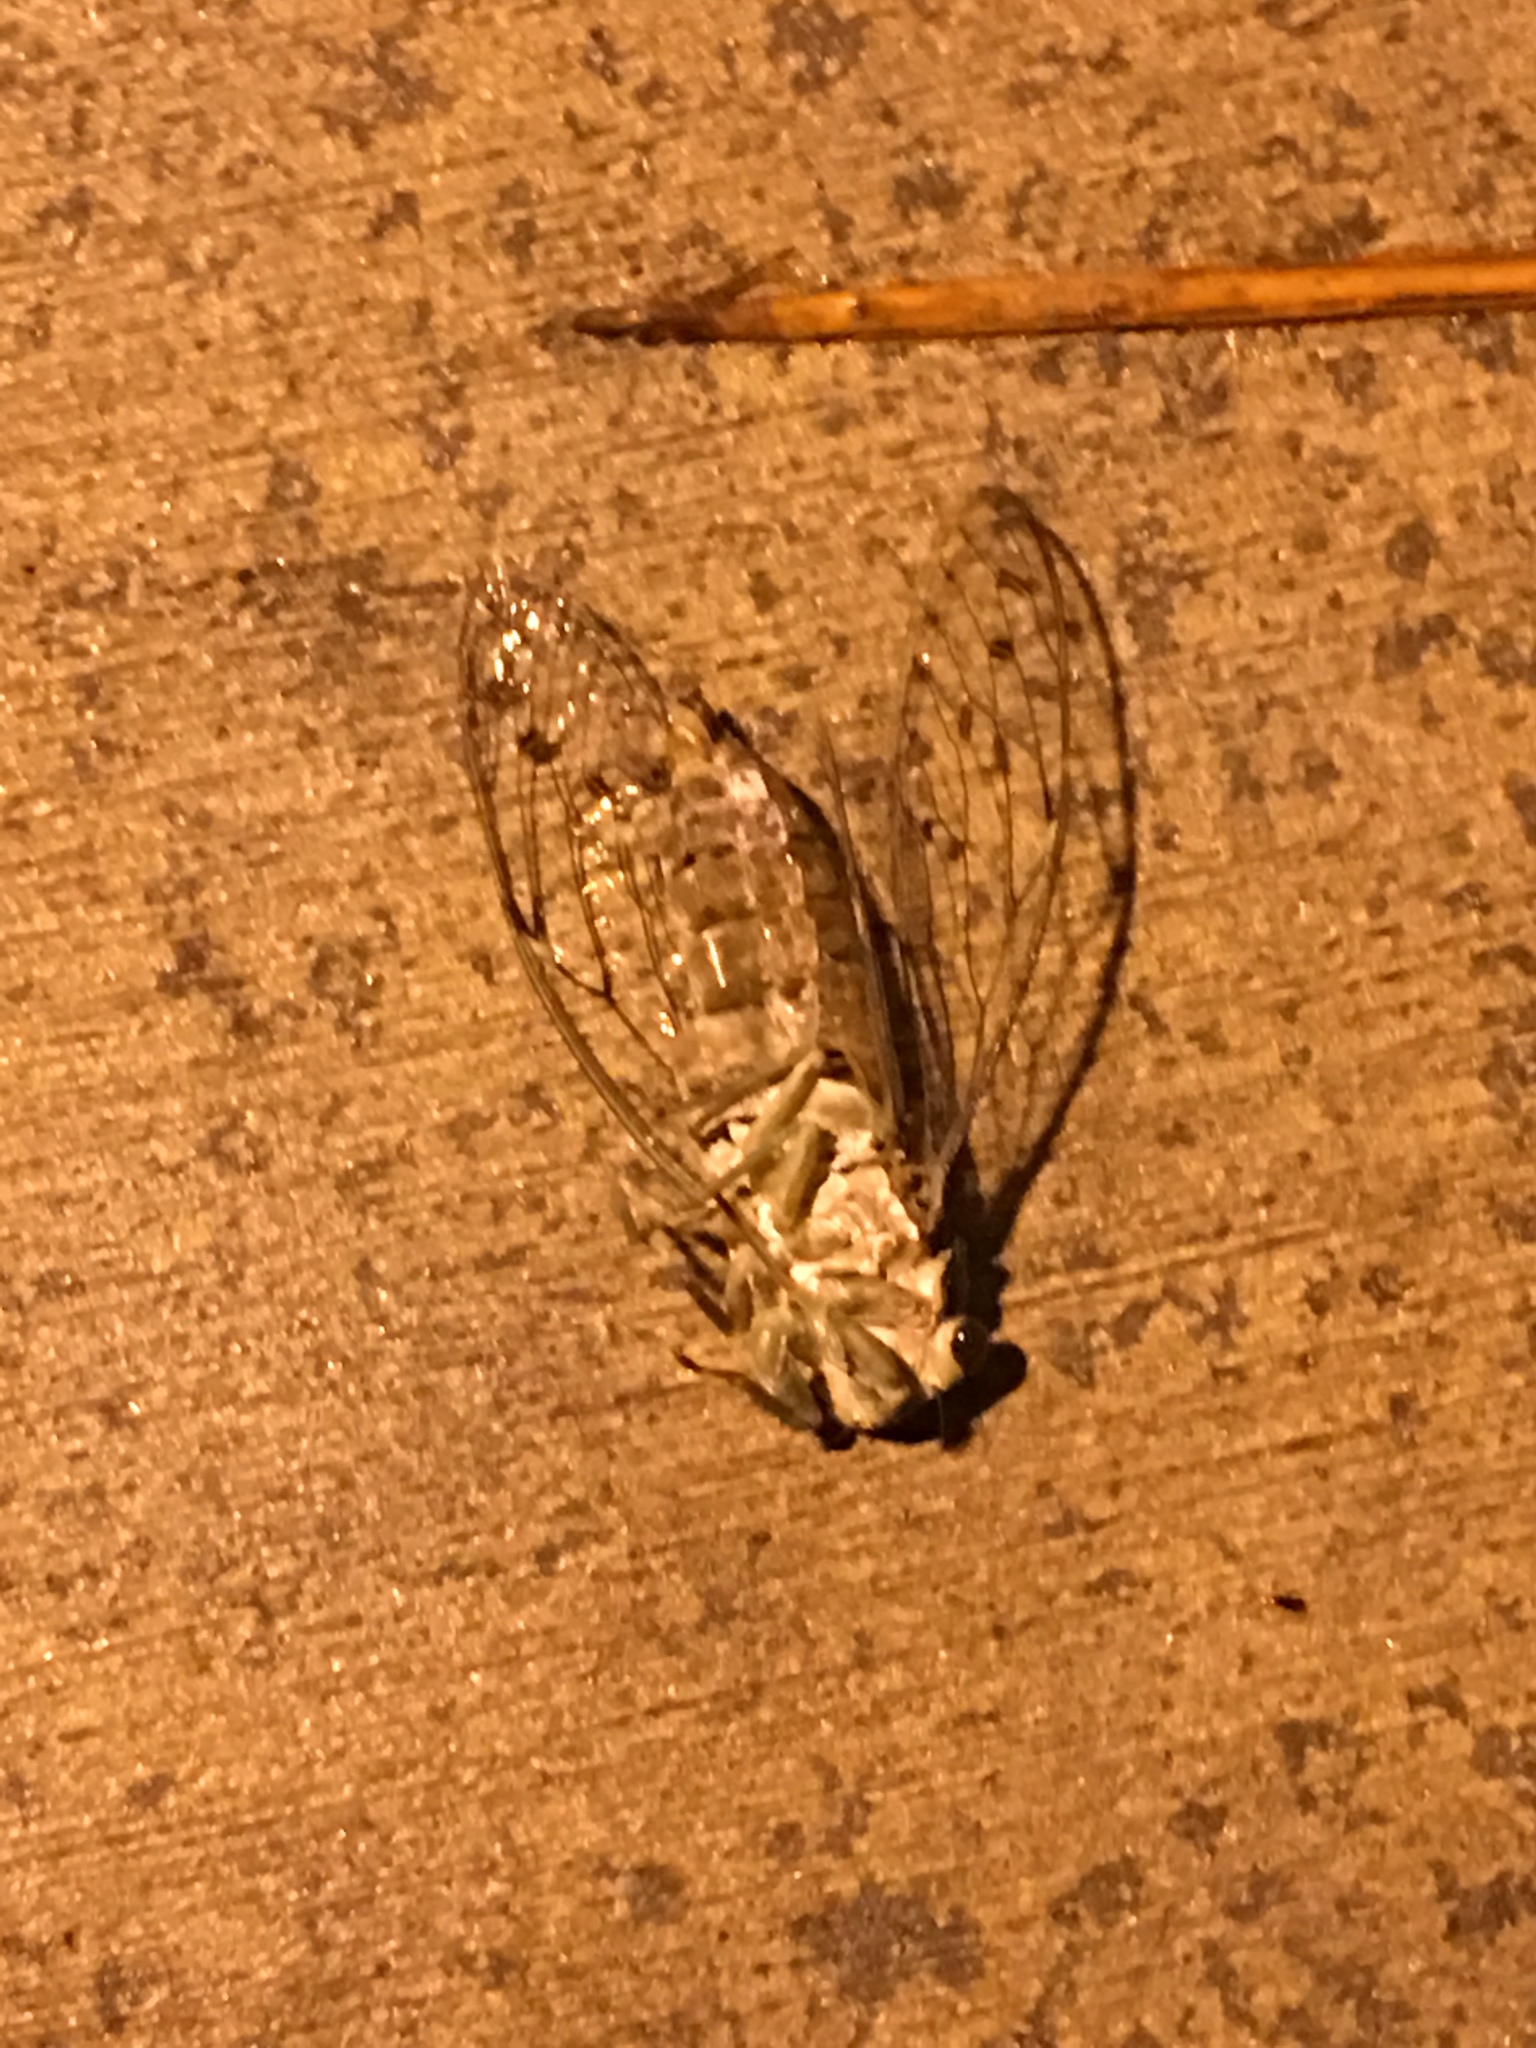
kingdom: Animalia
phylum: Arthropoda
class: Insecta
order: Hemiptera
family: Cicadidae
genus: Neocicada
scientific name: Neocicada hieroglyphica
